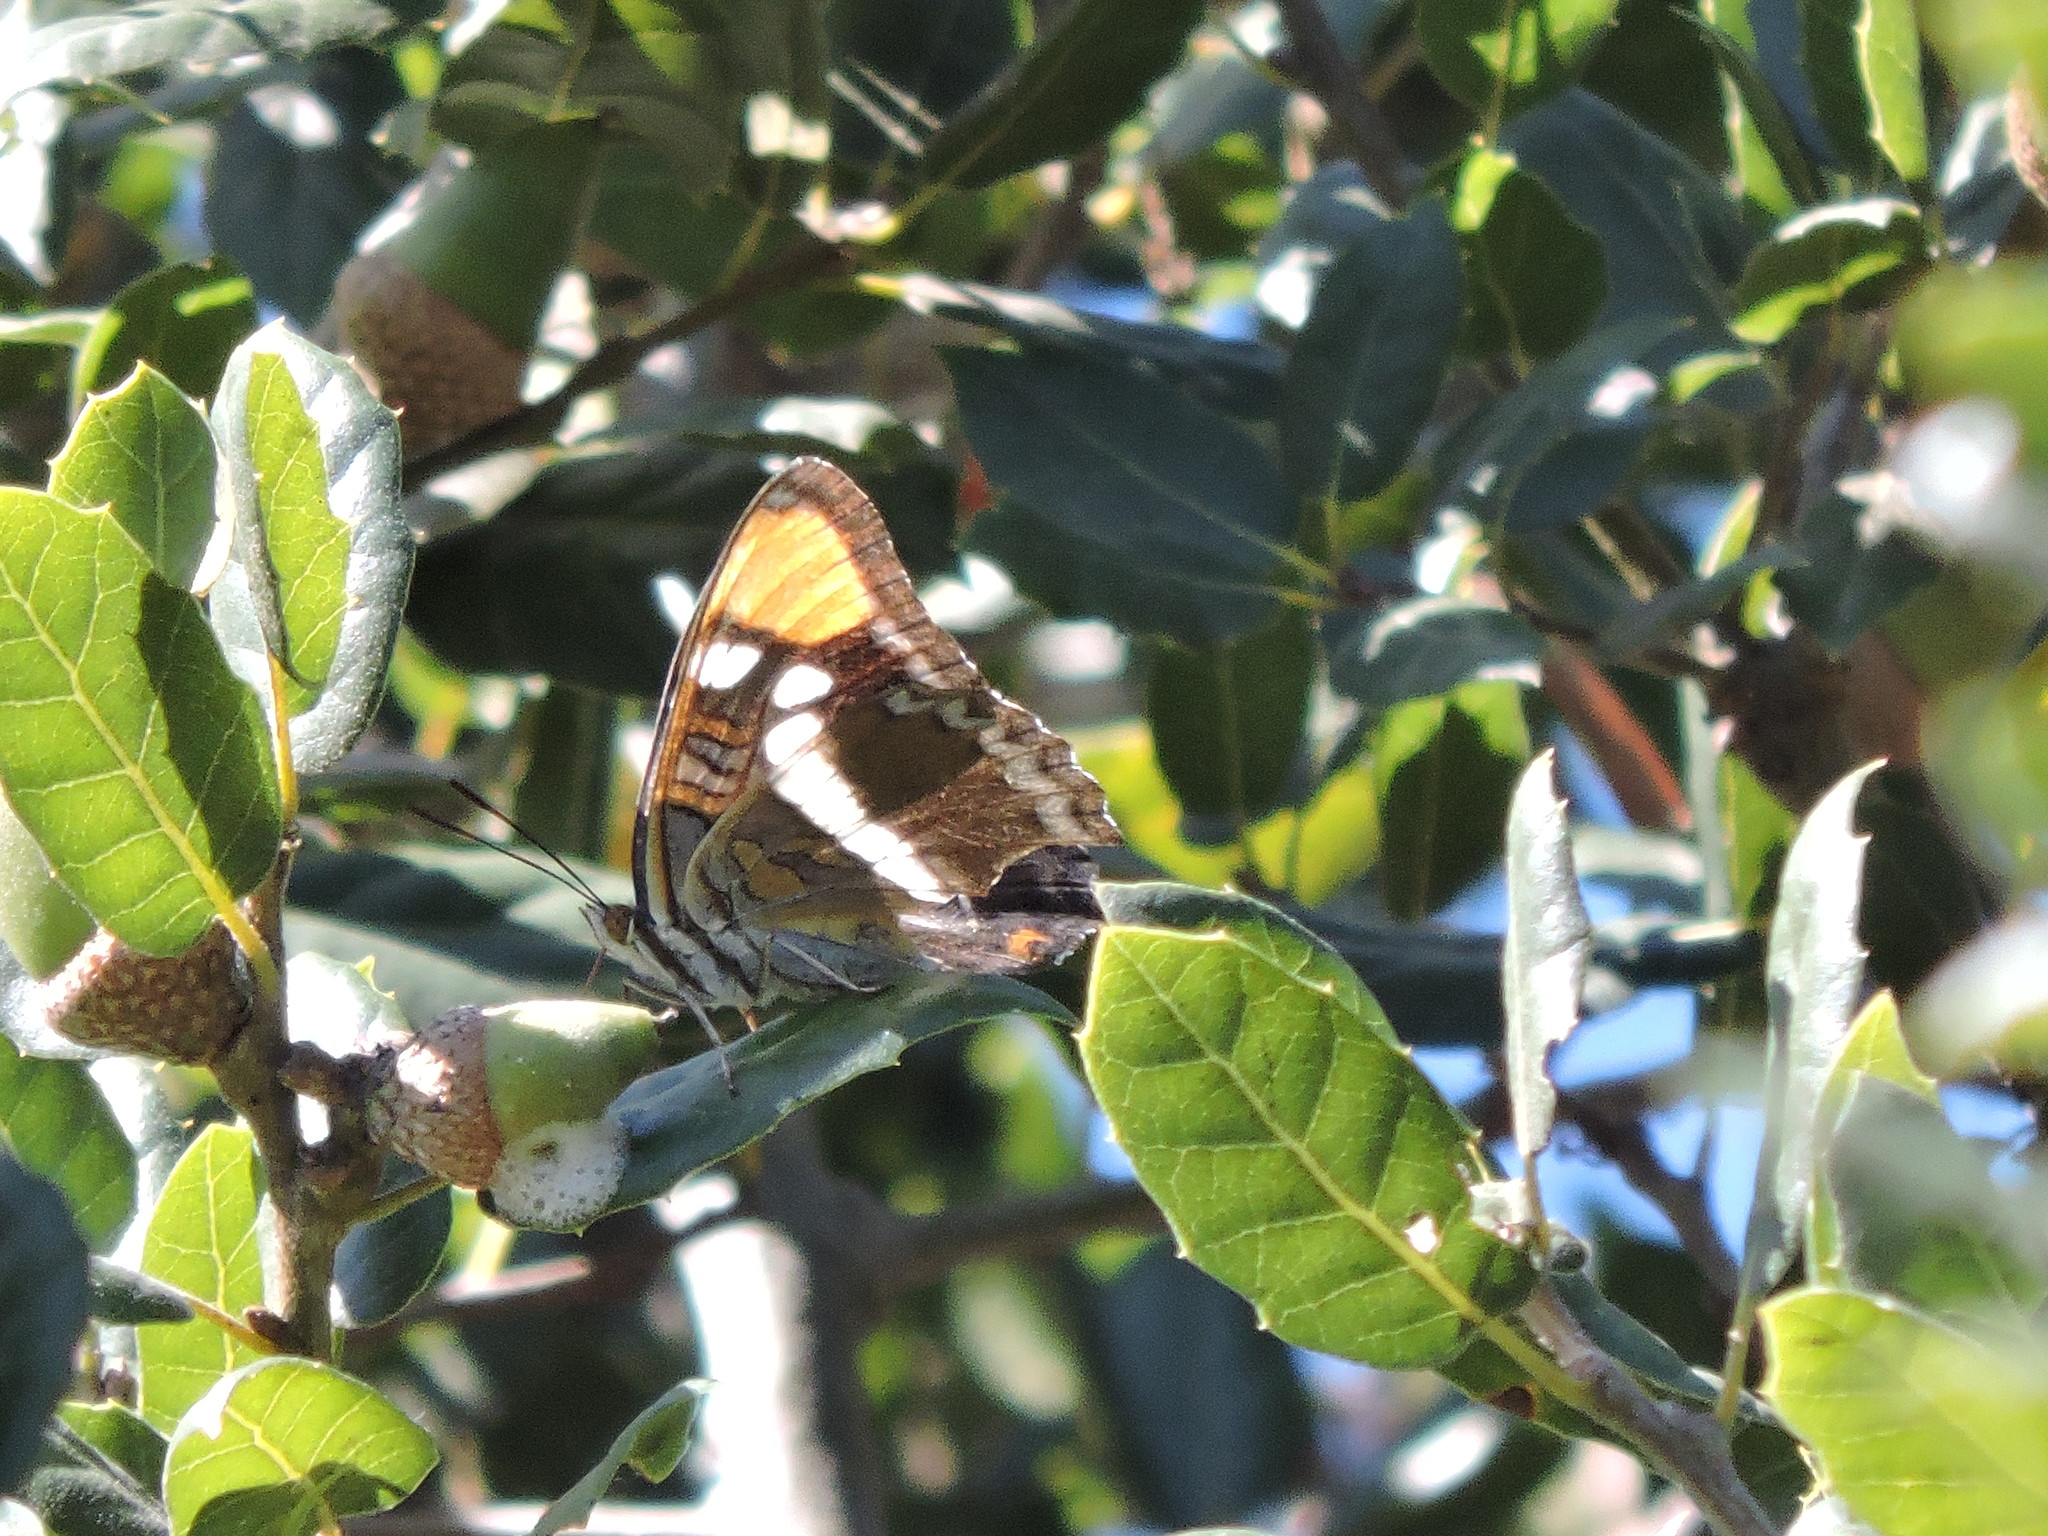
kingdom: Animalia
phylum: Arthropoda
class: Insecta
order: Lepidoptera
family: Nymphalidae
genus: Limenitis
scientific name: Limenitis bredowii
